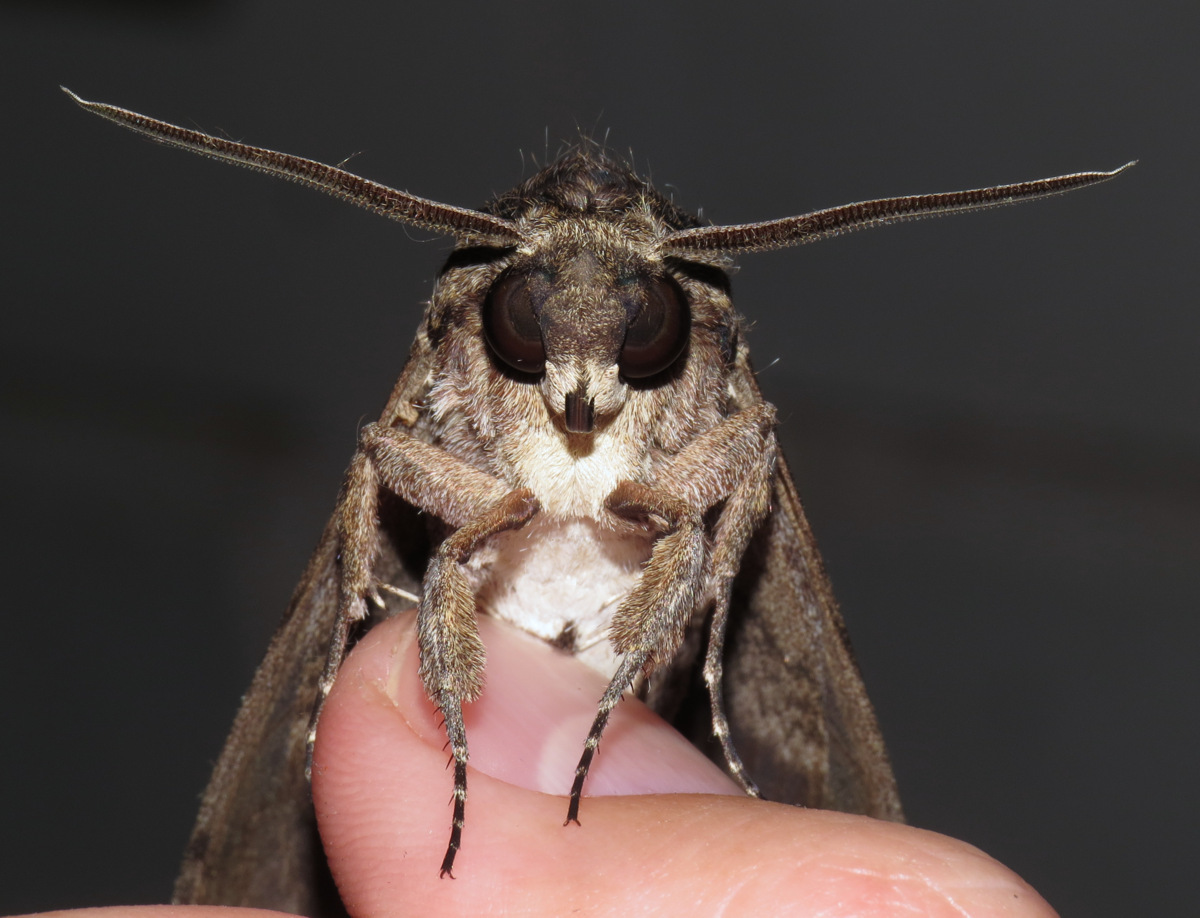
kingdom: Animalia
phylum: Arthropoda
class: Insecta
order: Lepidoptera
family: Sphingidae
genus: Agrius
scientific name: Agrius cingulata
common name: Pink-spotted hawkmoth
